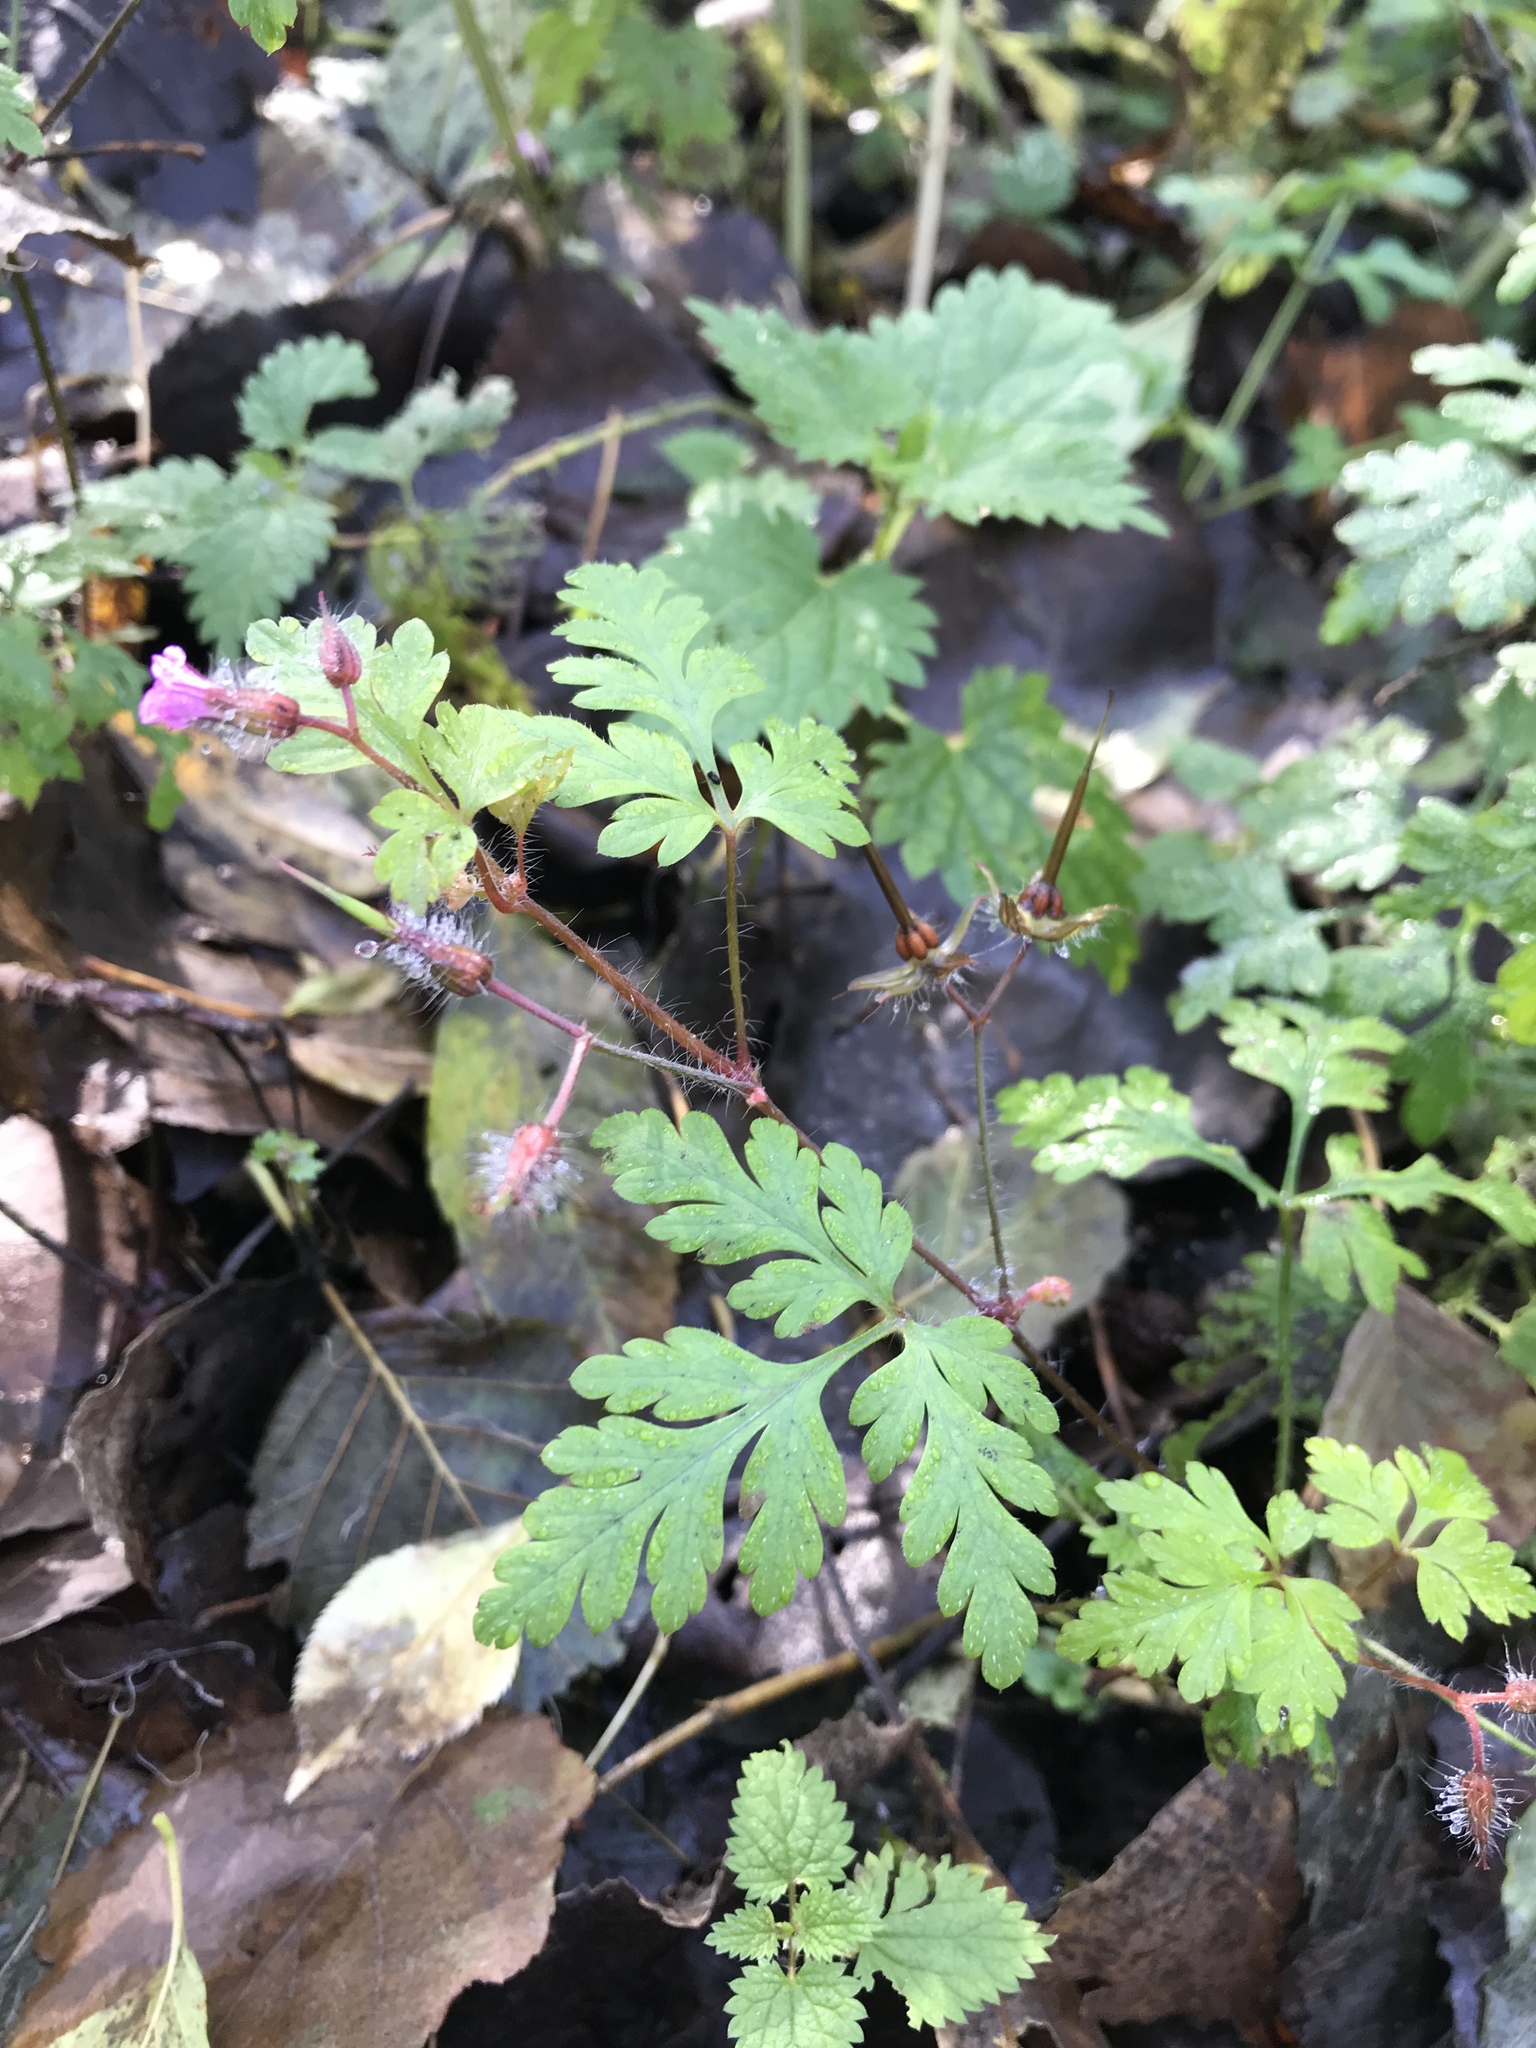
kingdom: Plantae
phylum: Tracheophyta
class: Magnoliopsida
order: Geraniales
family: Geraniaceae
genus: Geranium
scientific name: Geranium robertianum
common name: Herb-robert
